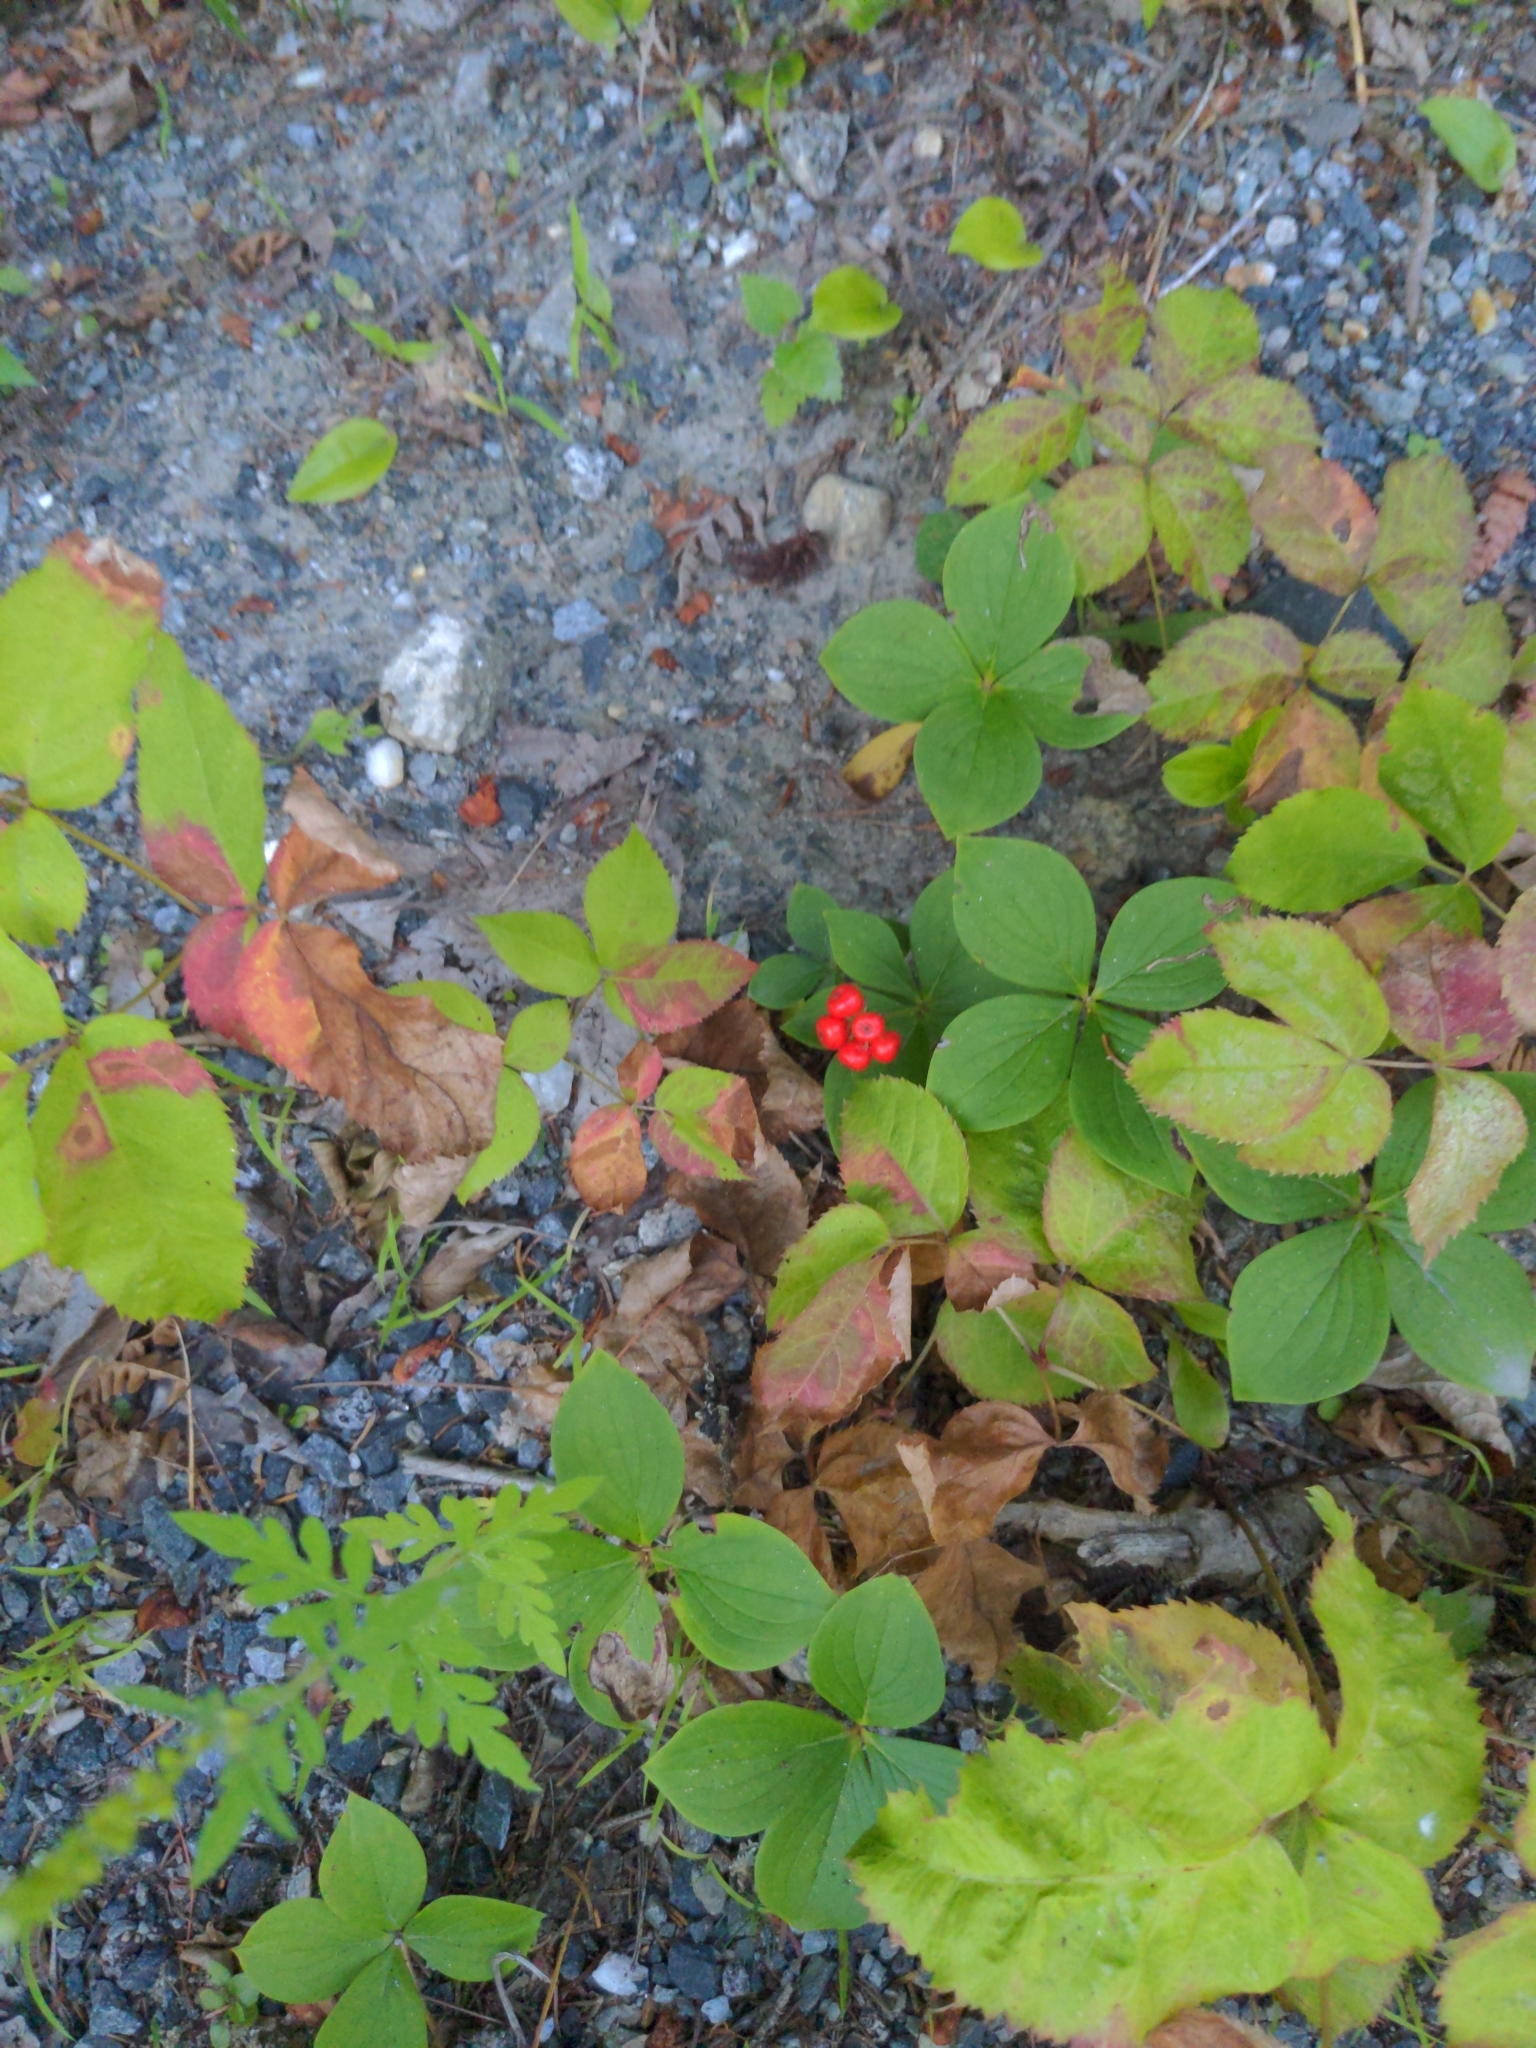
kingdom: Plantae
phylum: Tracheophyta
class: Magnoliopsida
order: Cornales
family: Cornaceae
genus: Cornus
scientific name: Cornus canadensis
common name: Creeping dogwood
